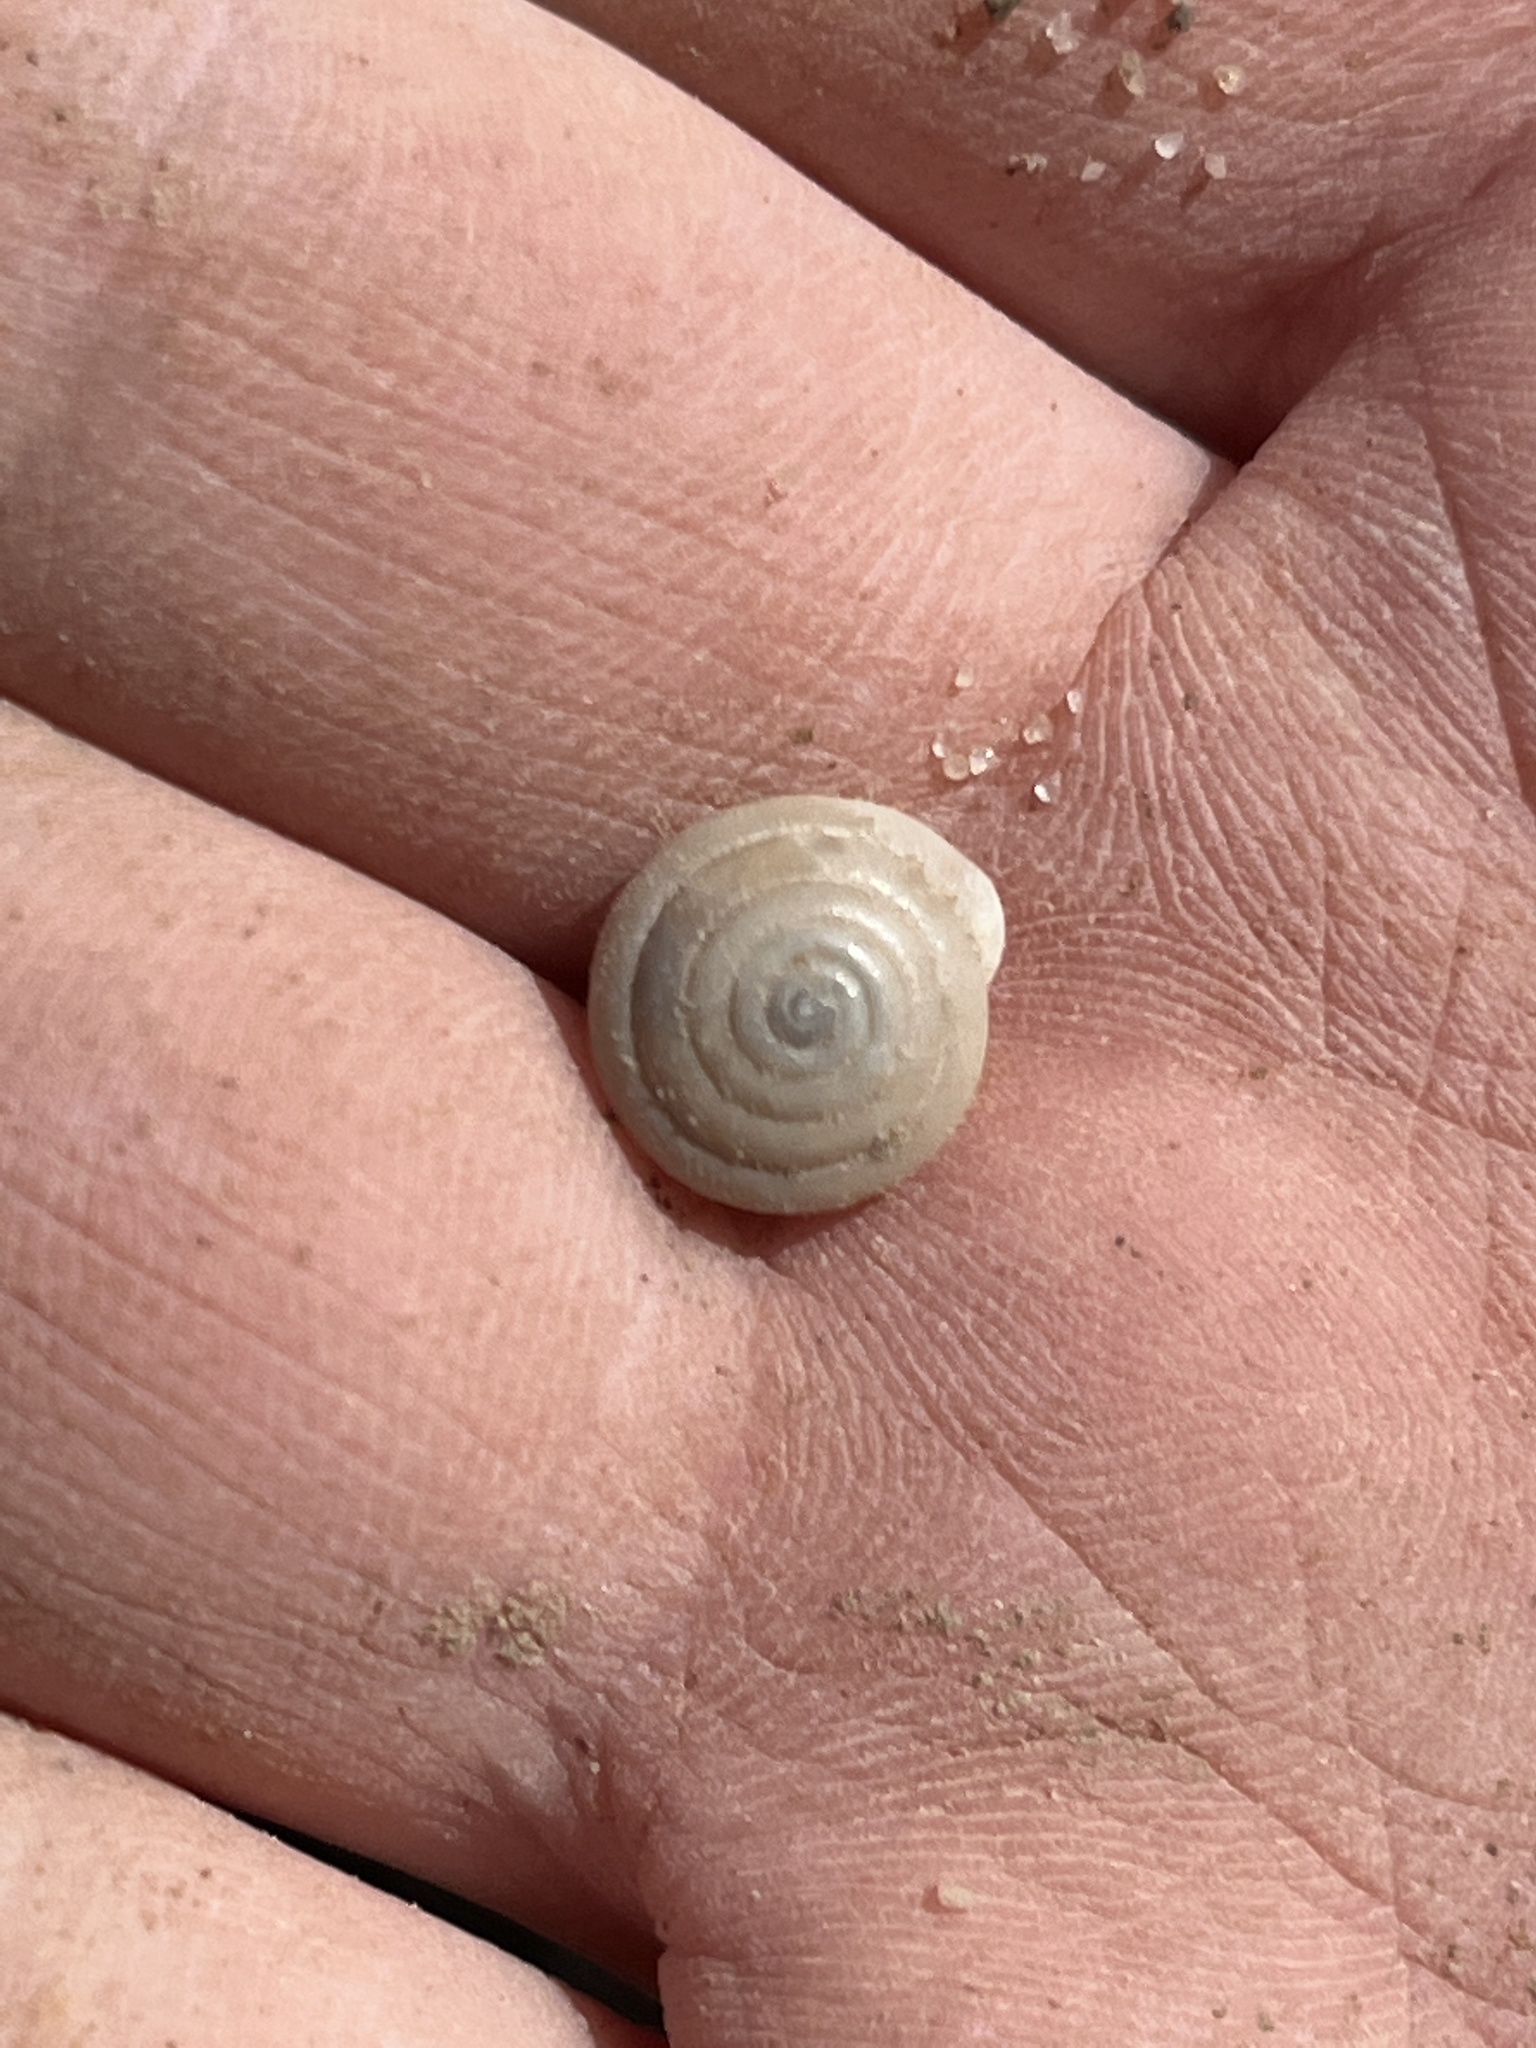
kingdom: Animalia
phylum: Mollusca
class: Gastropoda
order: Stylommatophora
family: Polygyridae
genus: Polygyra
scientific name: Polygyra cereolus
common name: Southern flatcone snail
